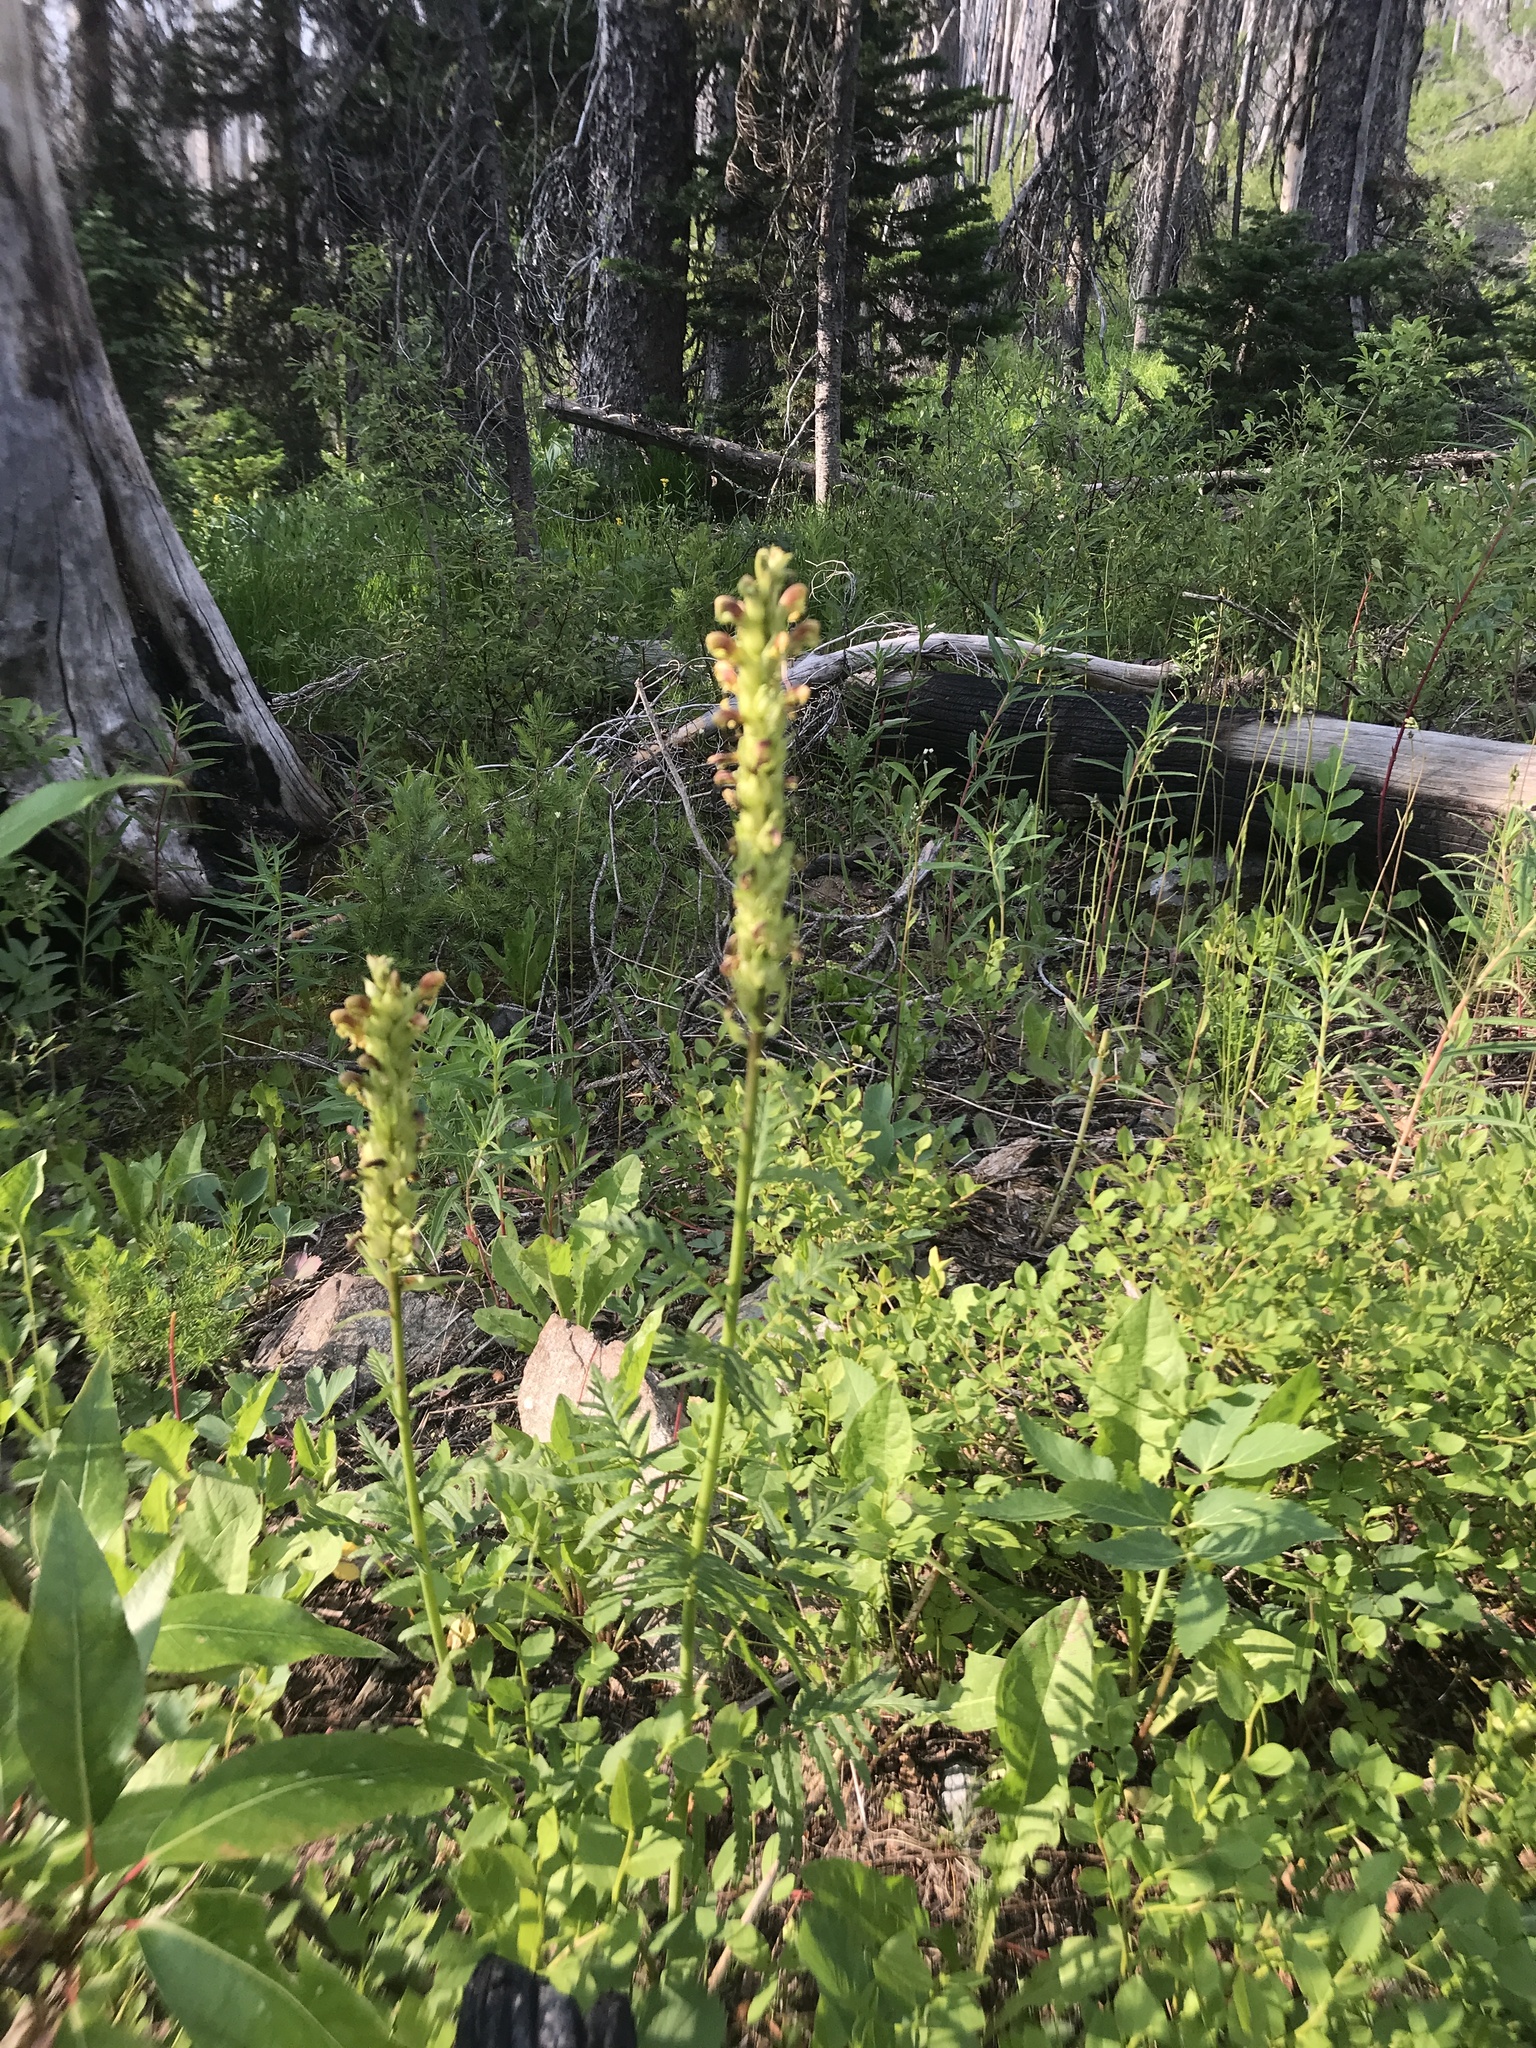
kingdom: Plantae
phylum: Tracheophyta
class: Magnoliopsida
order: Lamiales
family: Orobanchaceae
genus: Pedicularis
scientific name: Pedicularis bracteosa
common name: Bracted lousewort
